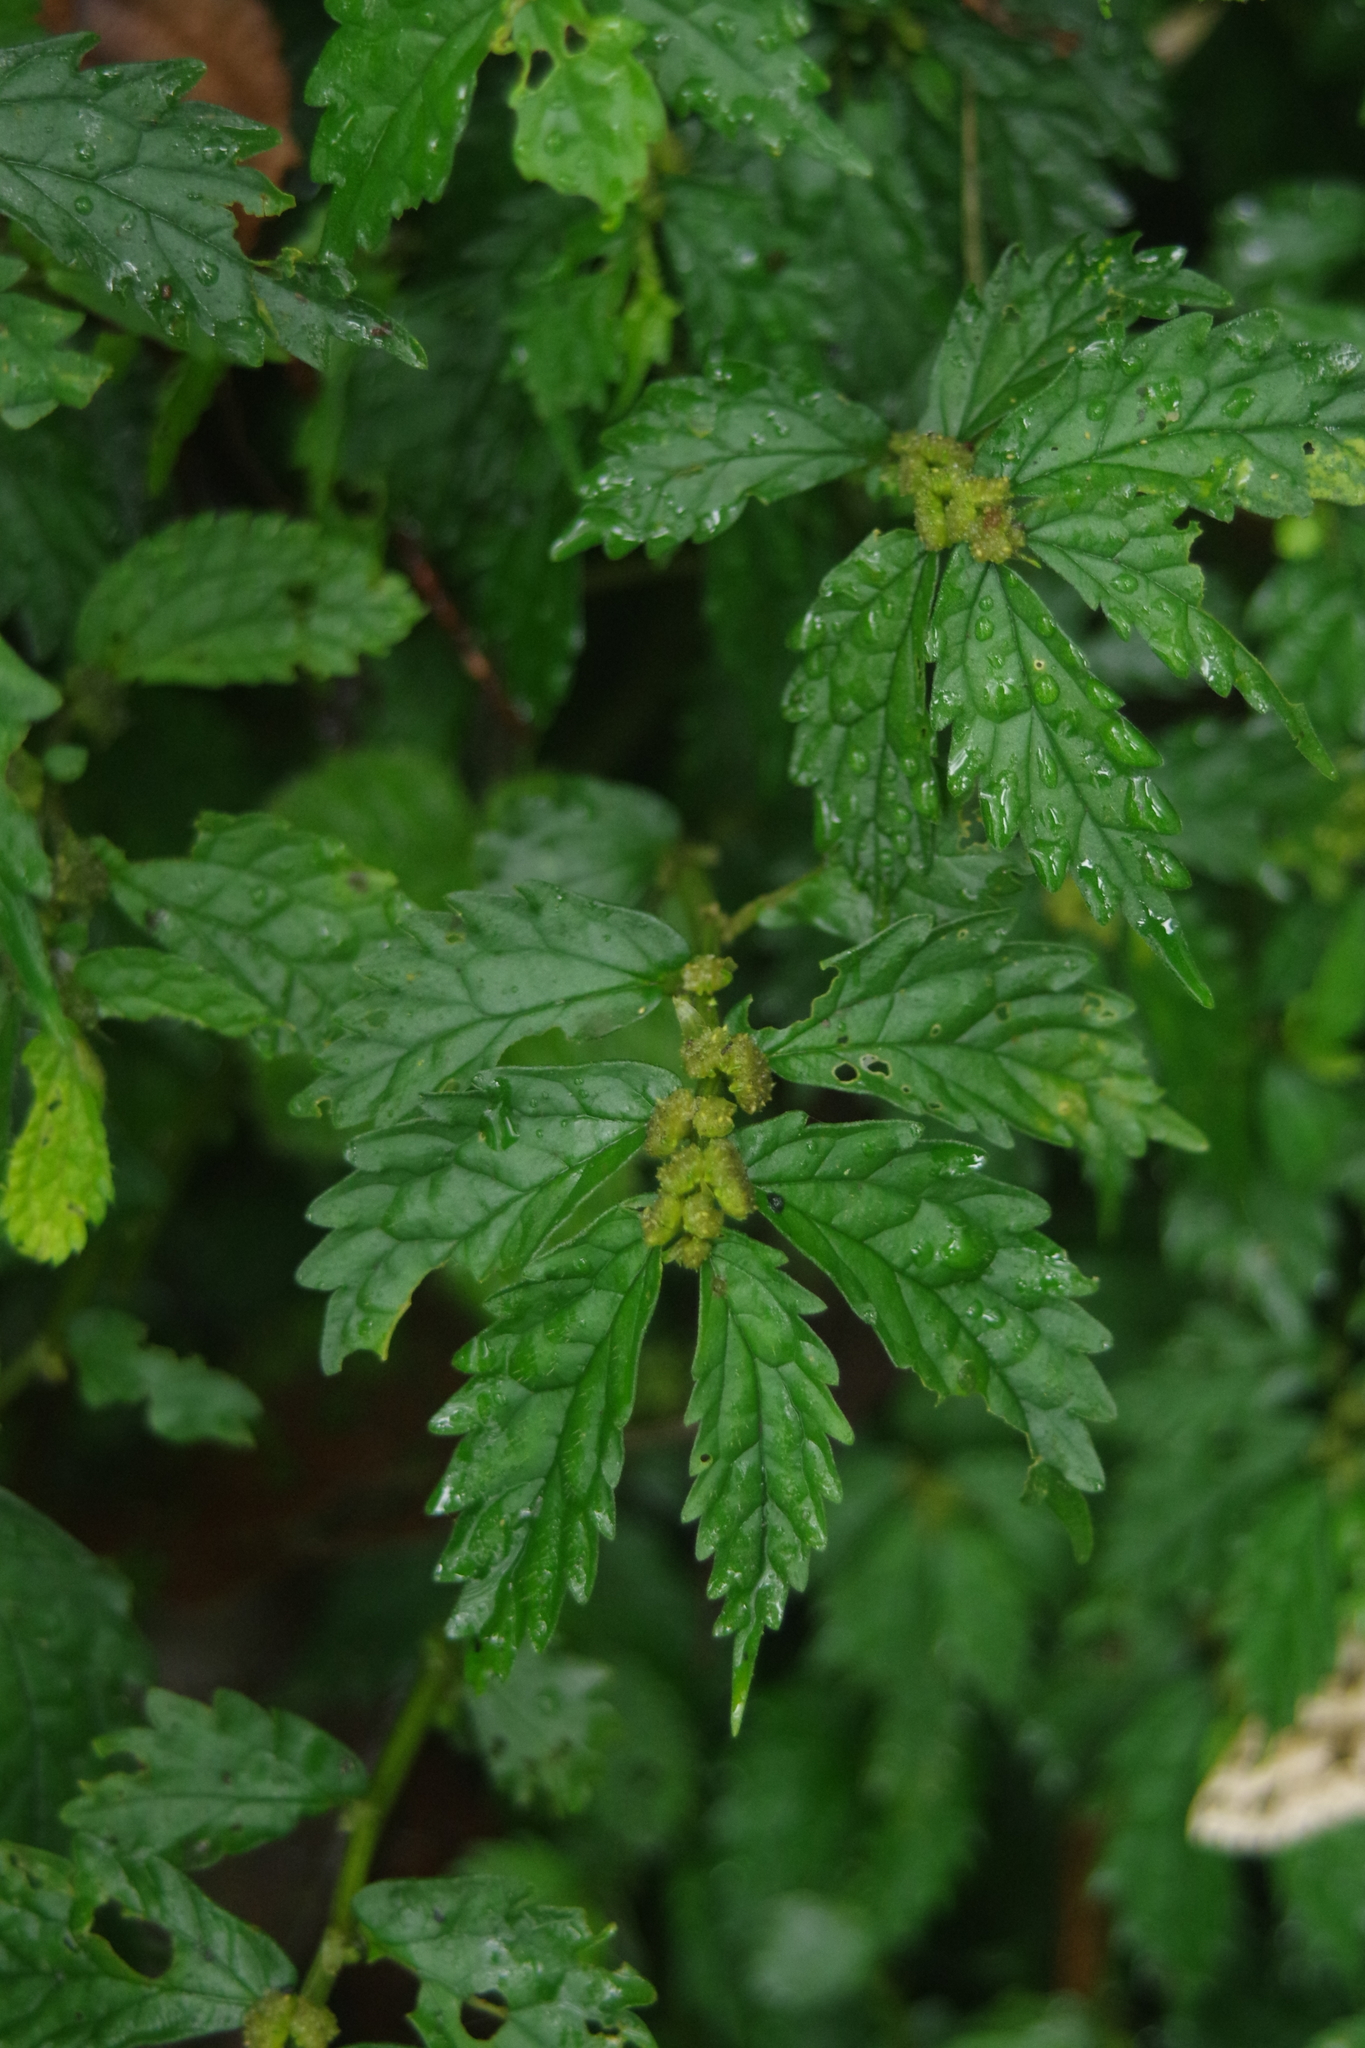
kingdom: Plantae
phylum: Tracheophyta
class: Magnoliopsida
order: Rosales
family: Urticaceae
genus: Elatostema
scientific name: Elatostema hypoglaucum
